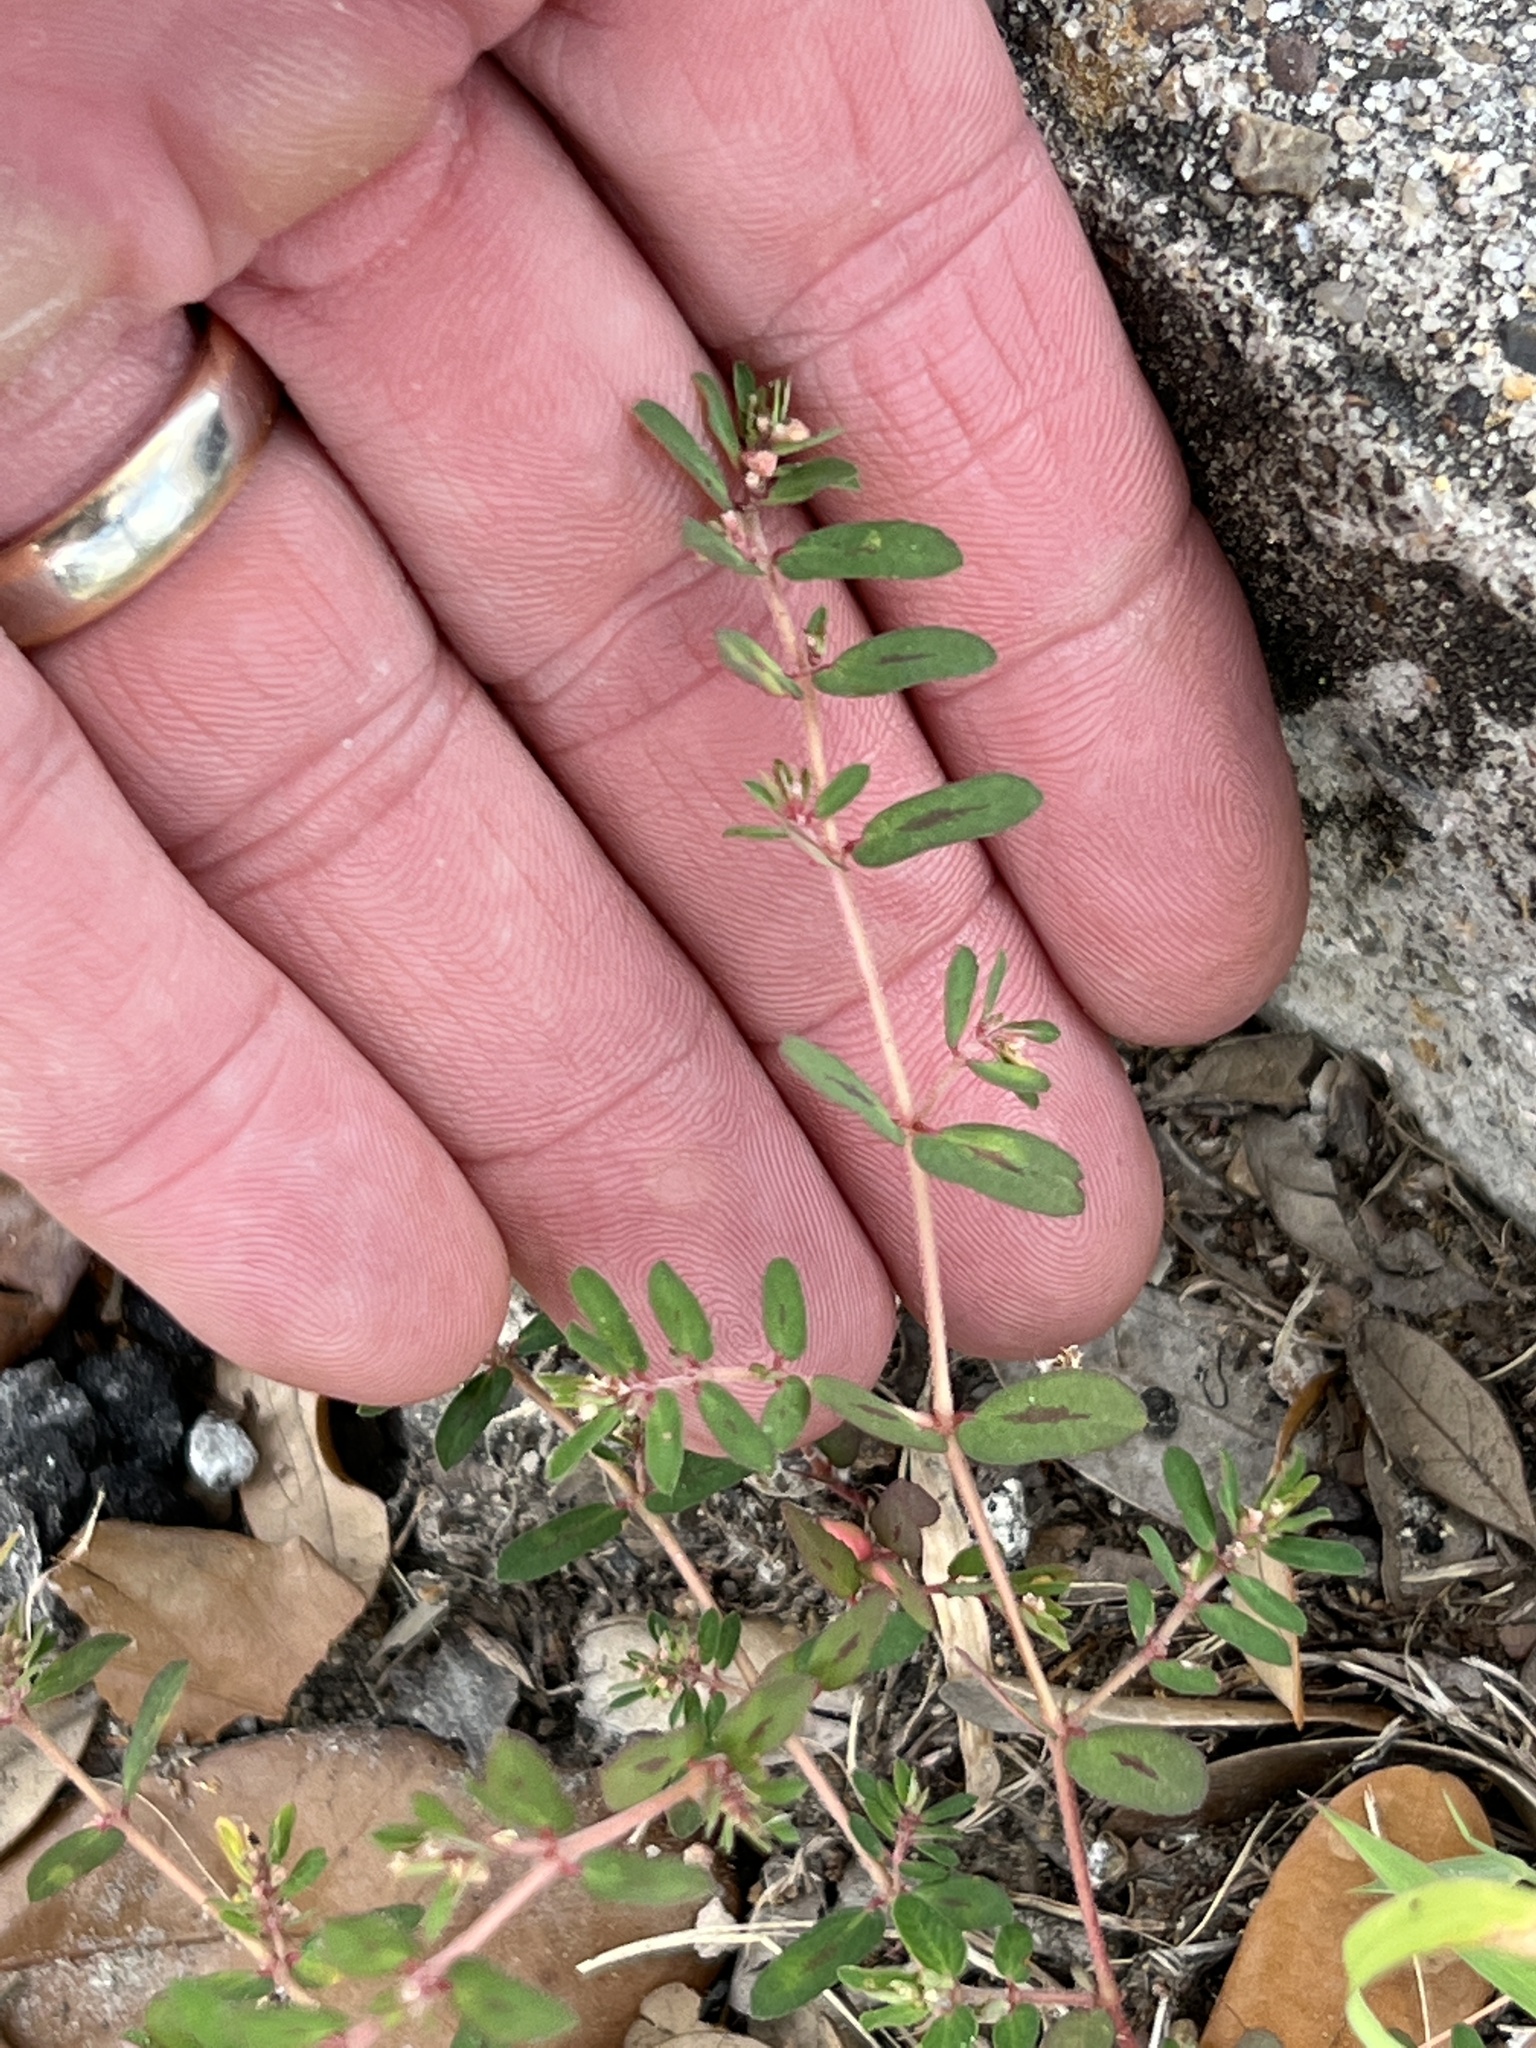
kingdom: Plantae
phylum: Tracheophyta
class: Magnoliopsida
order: Malpighiales
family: Euphorbiaceae
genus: Euphorbia
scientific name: Euphorbia maculata
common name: Spotted spurge
